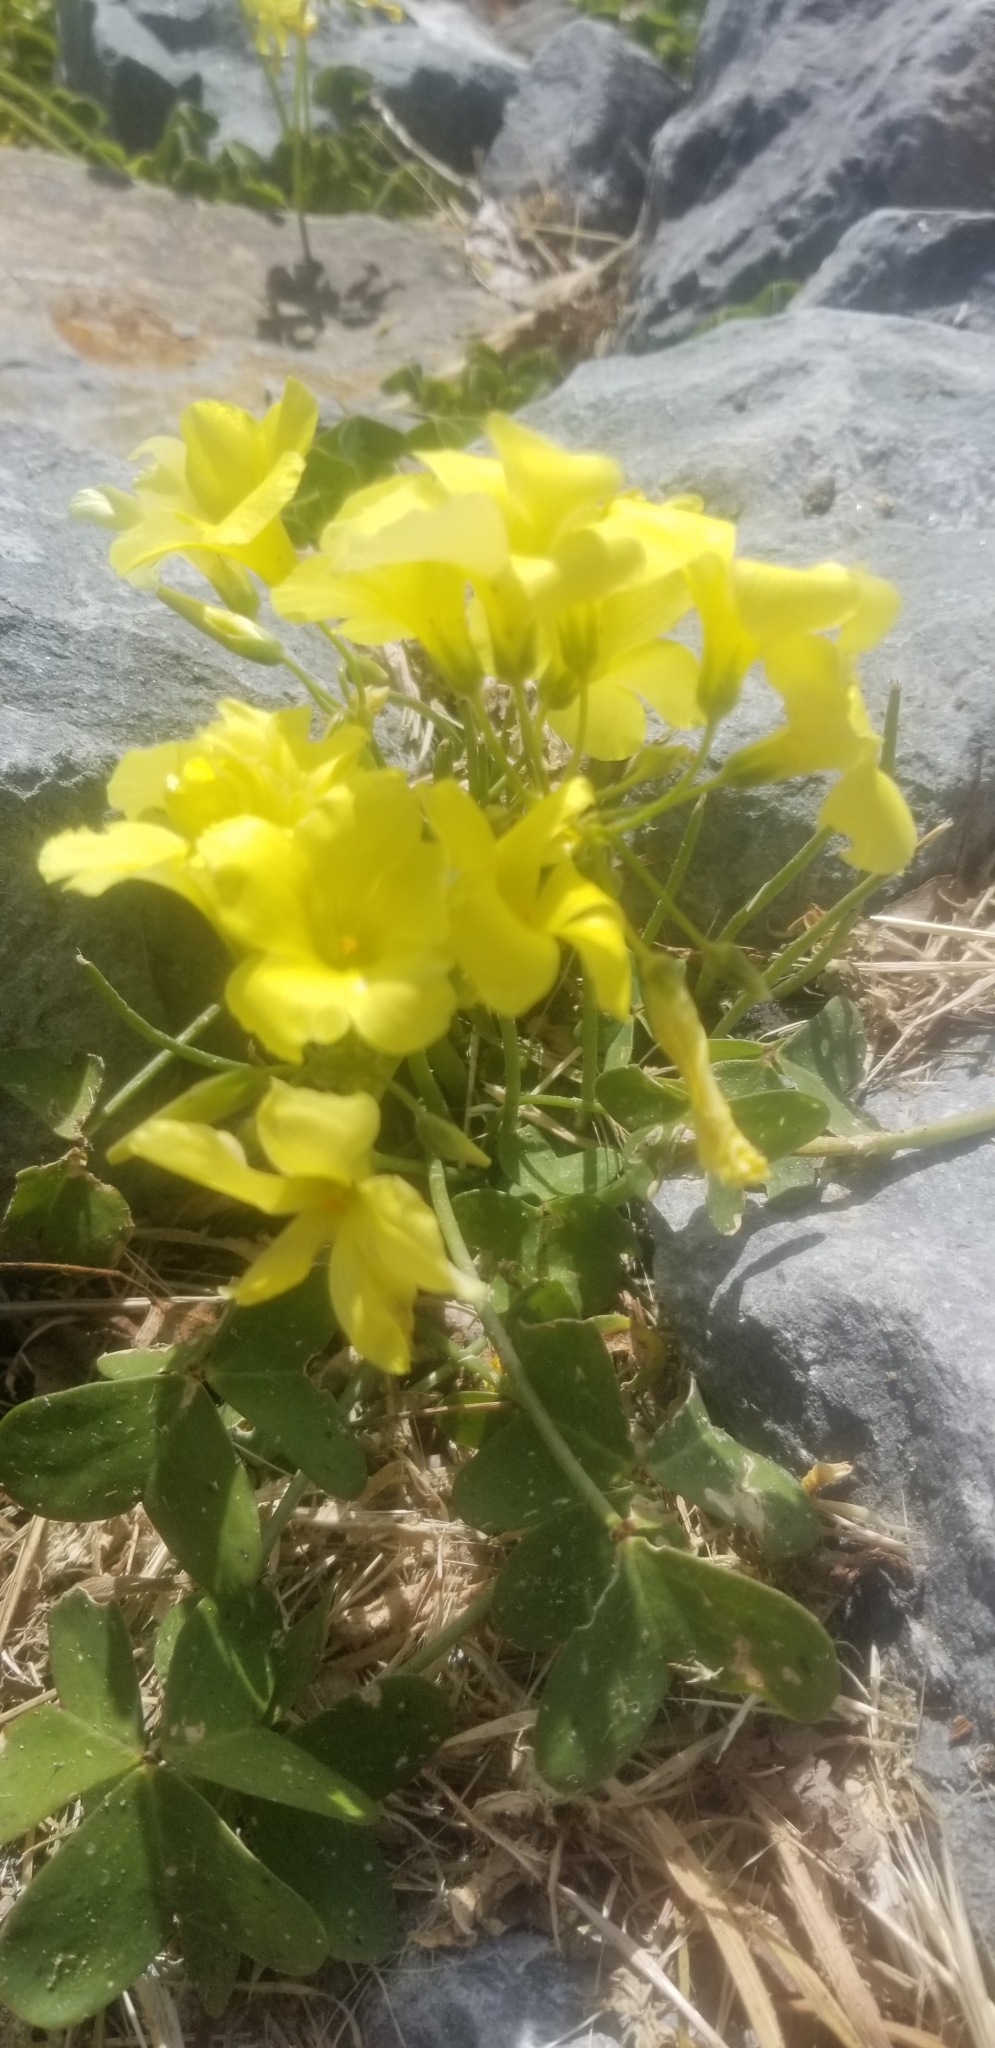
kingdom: Plantae
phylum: Tracheophyta
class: Magnoliopsida
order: Oxalidales
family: Oxalidaceae
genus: Oxalis
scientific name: Oxalis pes-caprae
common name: Bermuda-buttercup
